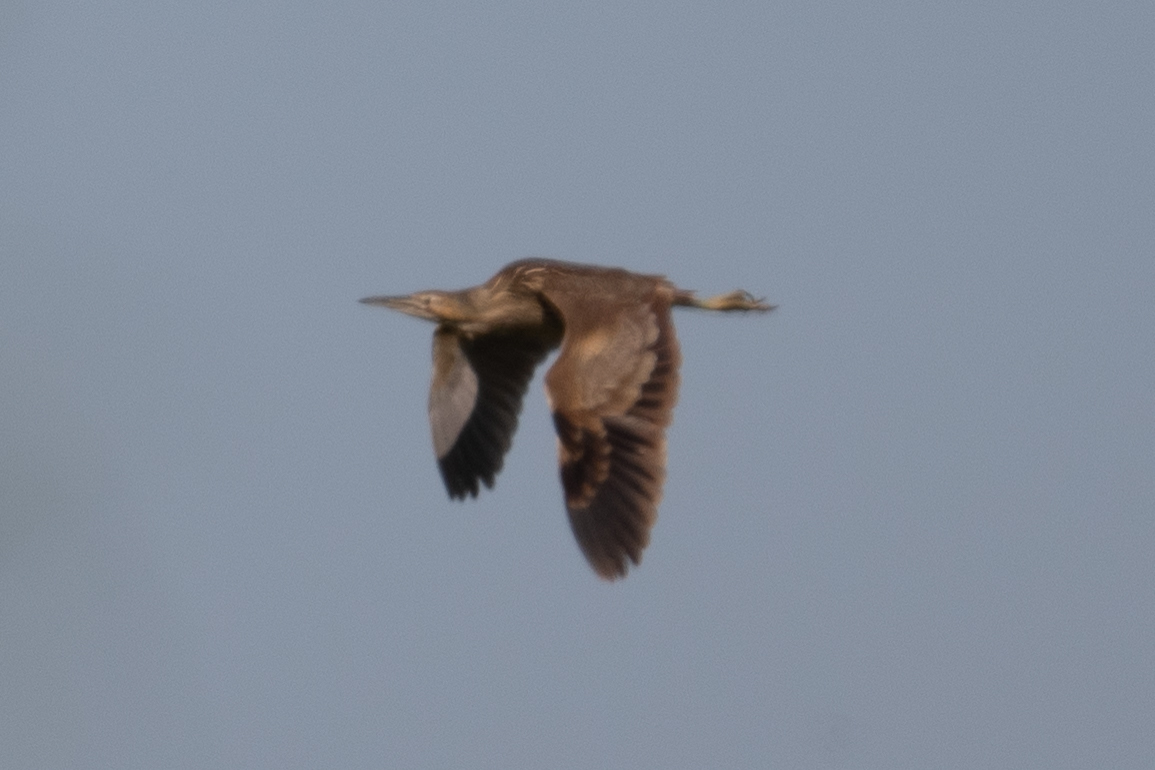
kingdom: Animalia
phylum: Chordata
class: Aves
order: Pelecaniformes
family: Ardeidae
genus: Botaurus
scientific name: Botaurus lentiginosus
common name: American bittern
